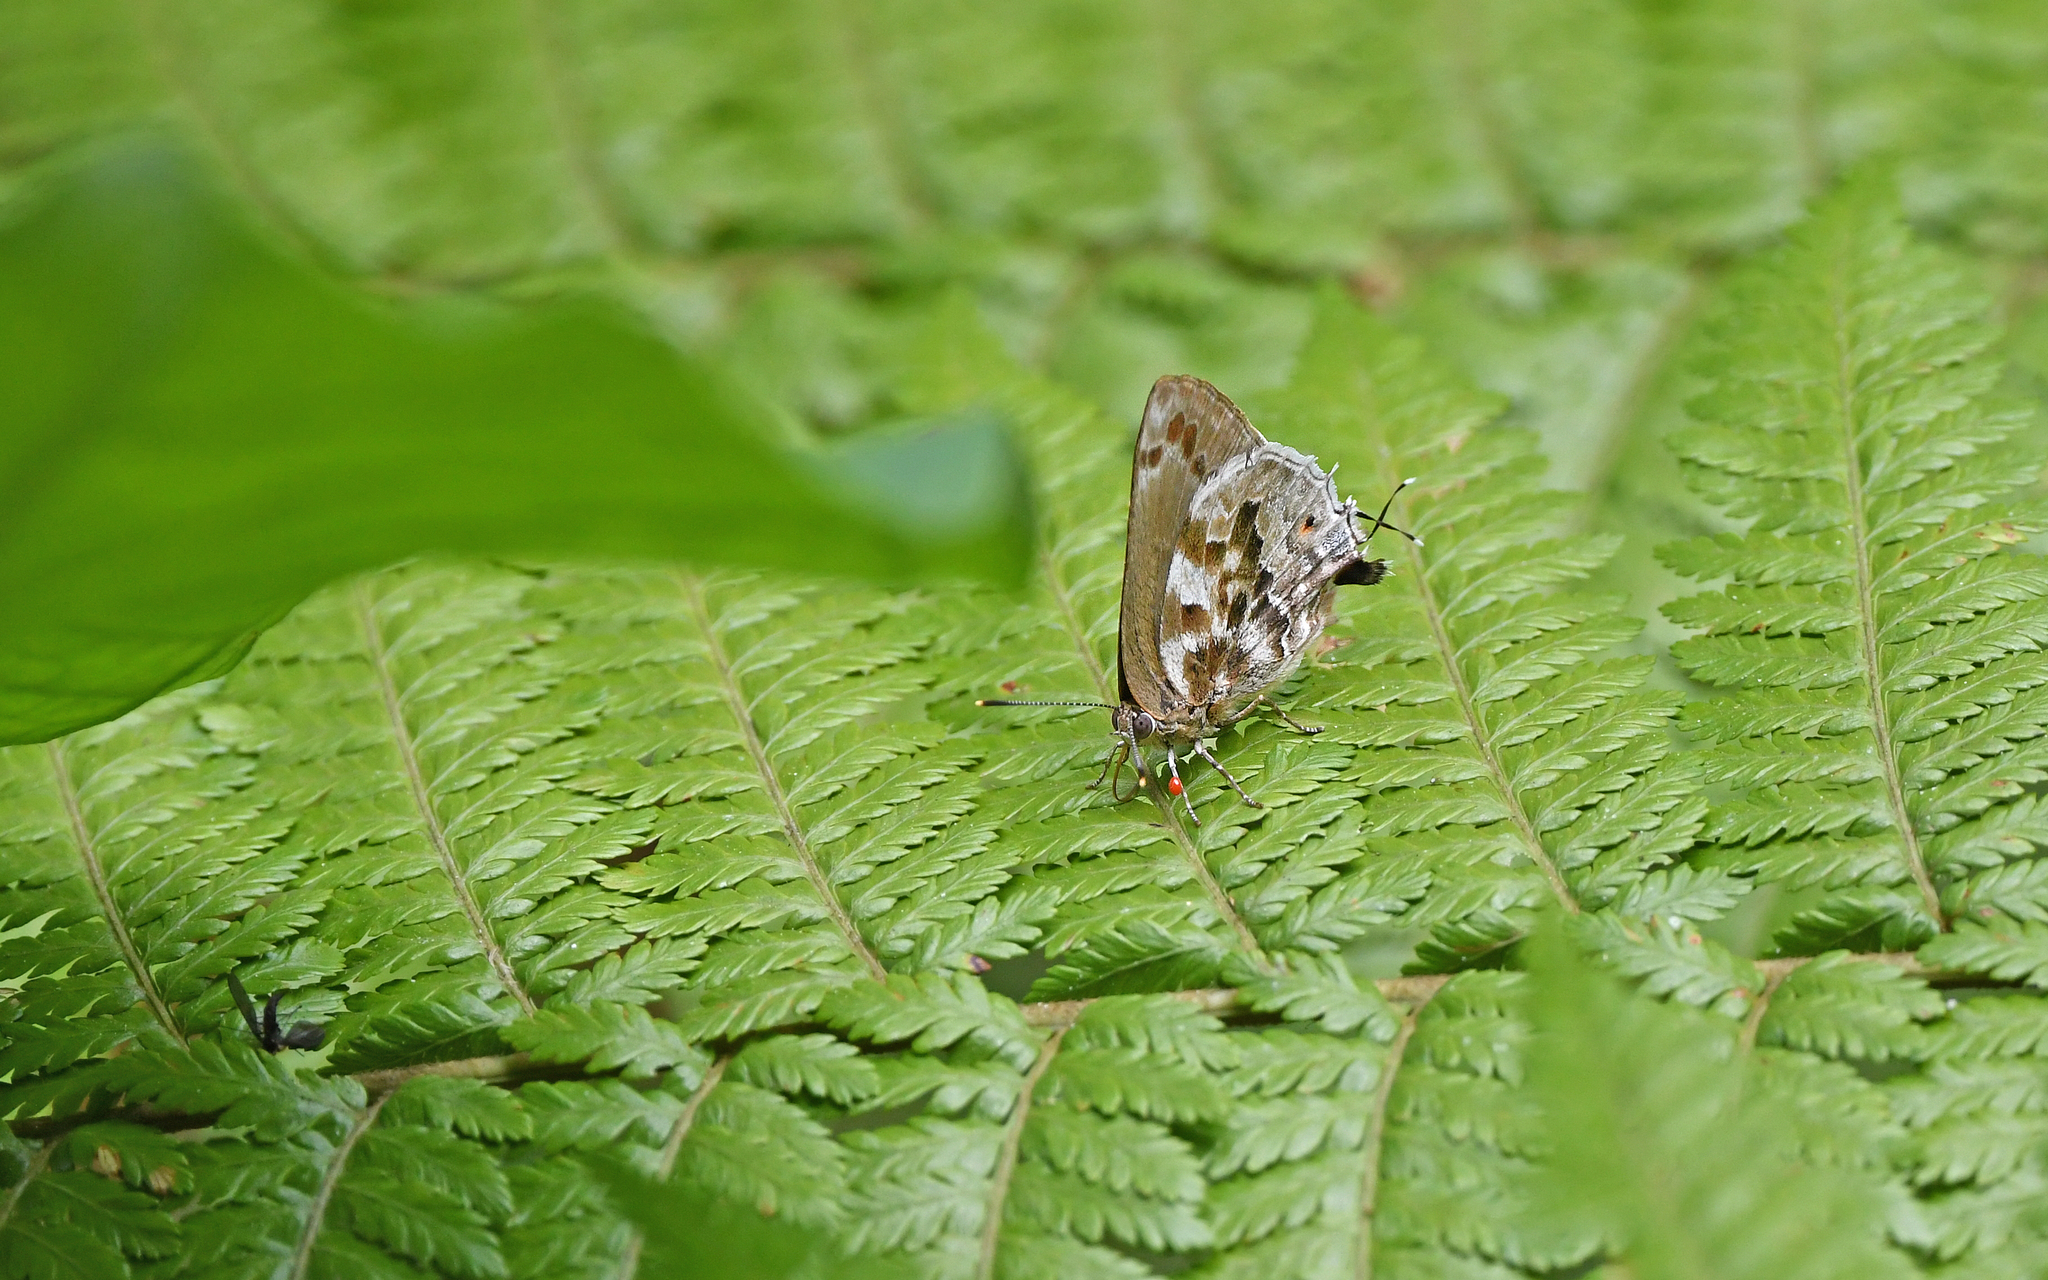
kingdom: Animalia
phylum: Arthropoda
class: Insecta
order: Lepidoptera
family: Lycaenidae
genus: Michaelus
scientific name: Michaelus jebus
